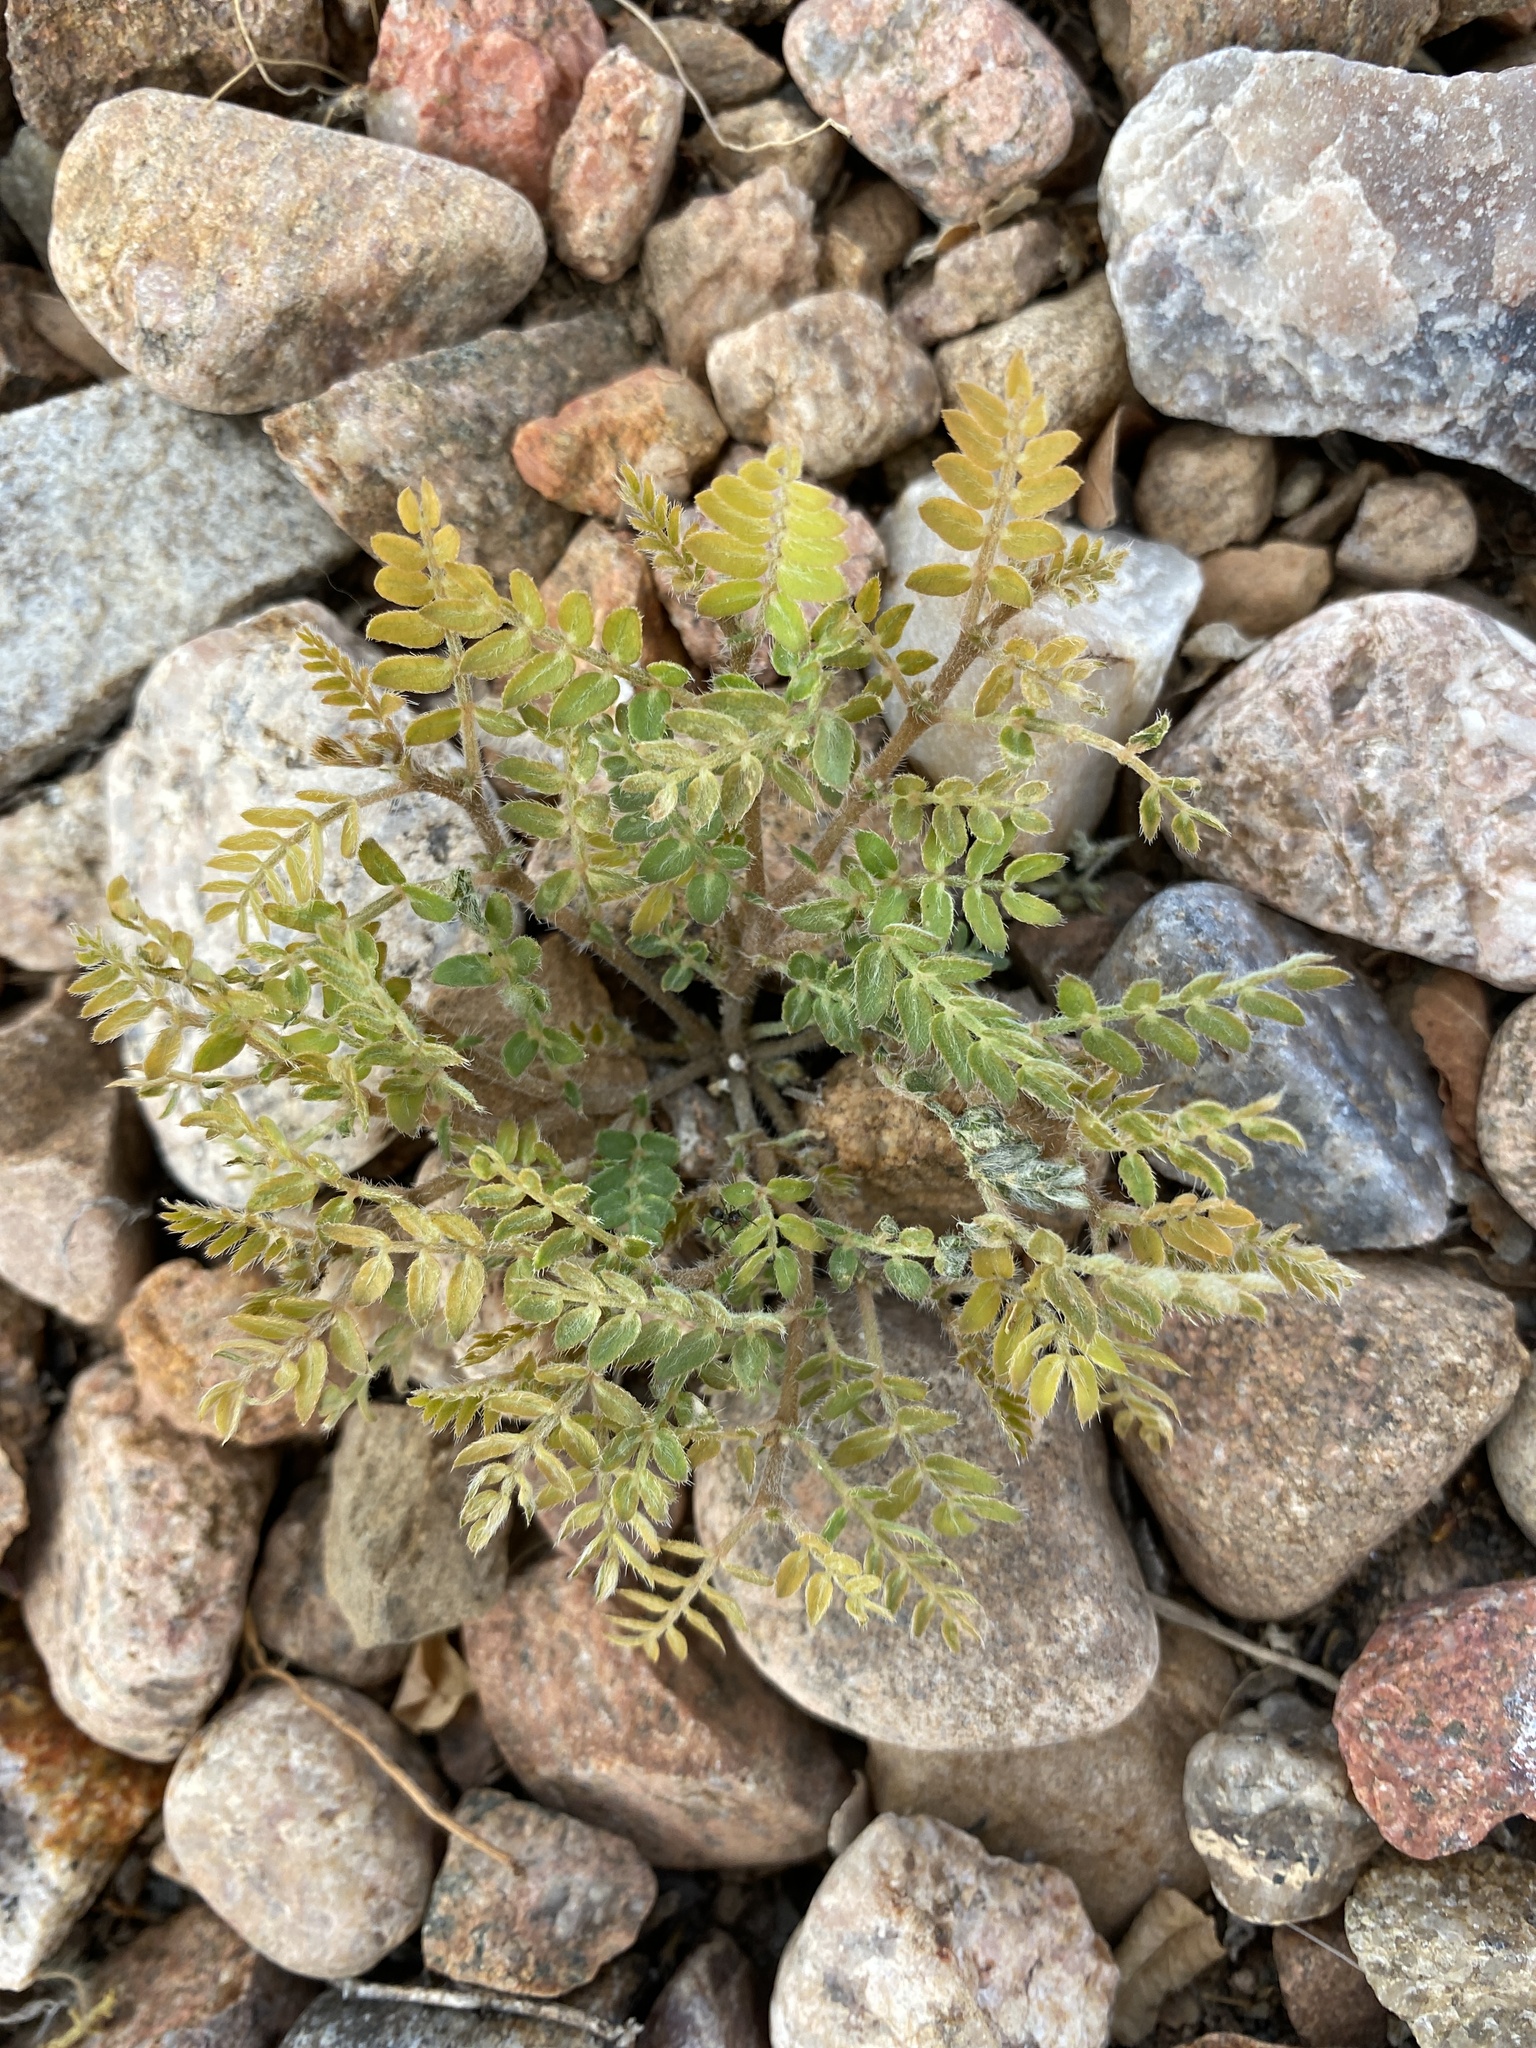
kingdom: Plantae
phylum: Tracheophyta
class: Magnoliopsida
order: Zygophyllales
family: Zygophyllaceae
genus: Tribulus
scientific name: Tribulus terrestris
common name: Puncturevine
